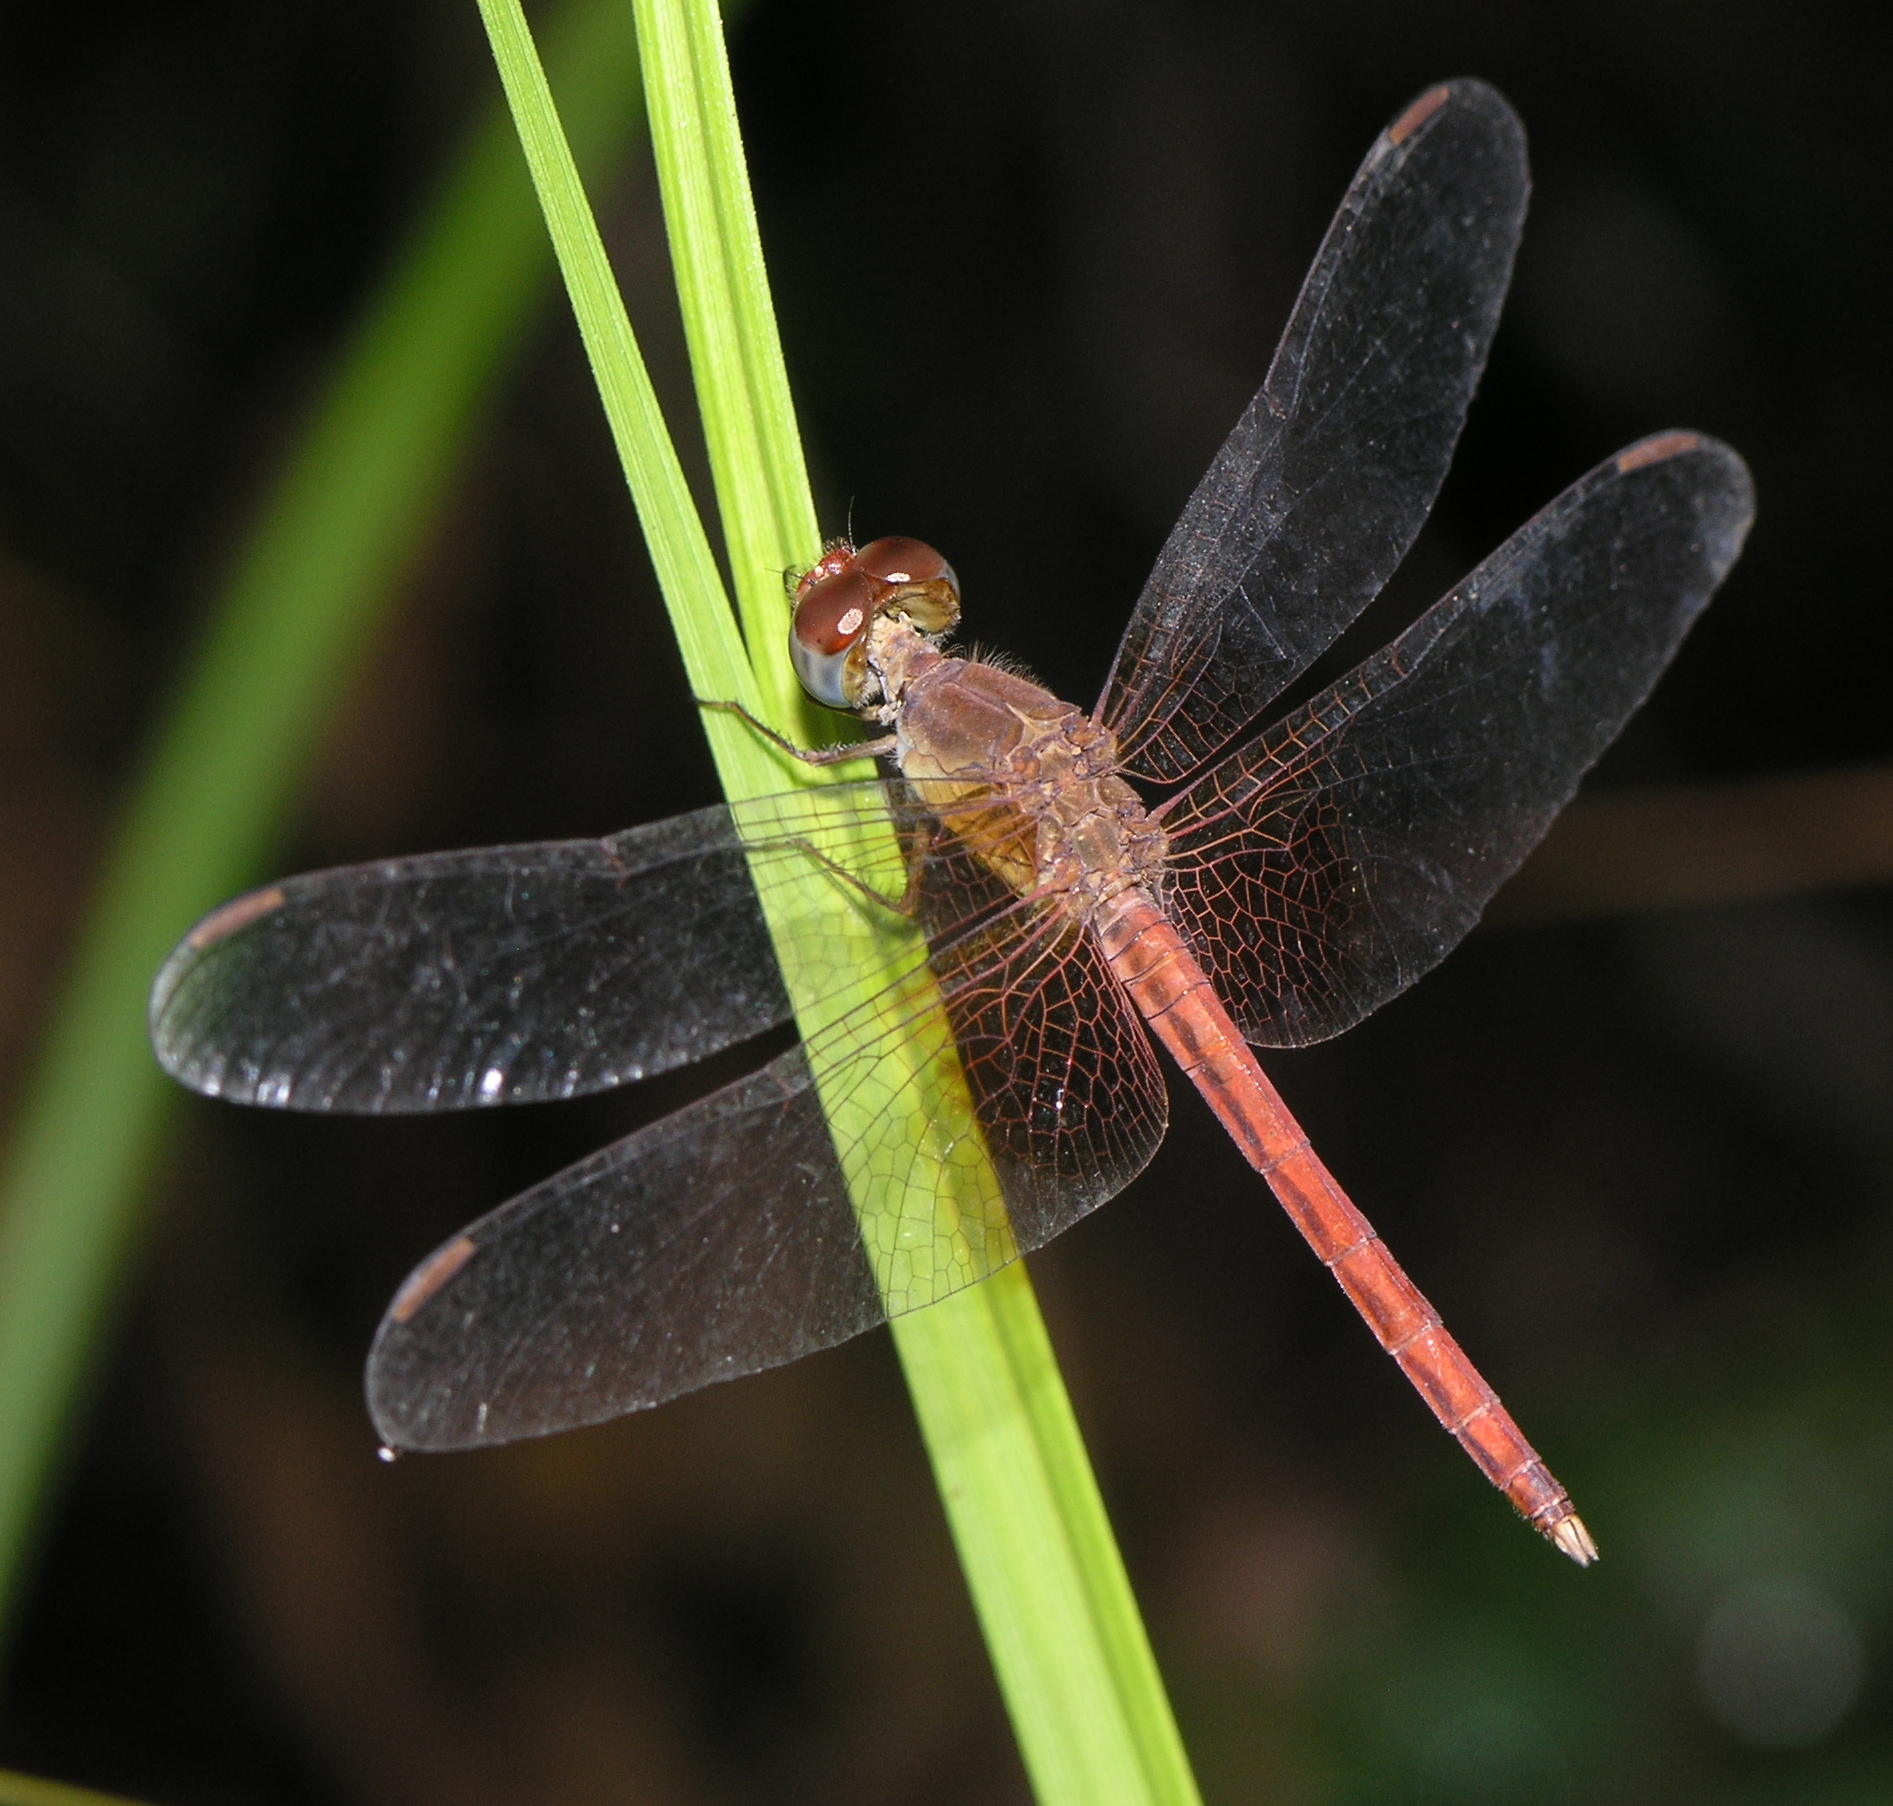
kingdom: Animalia
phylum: Arthropoda
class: Insecta
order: Odonata
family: Libellulidae
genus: Neurothemis
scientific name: Neurothemis intermedia
